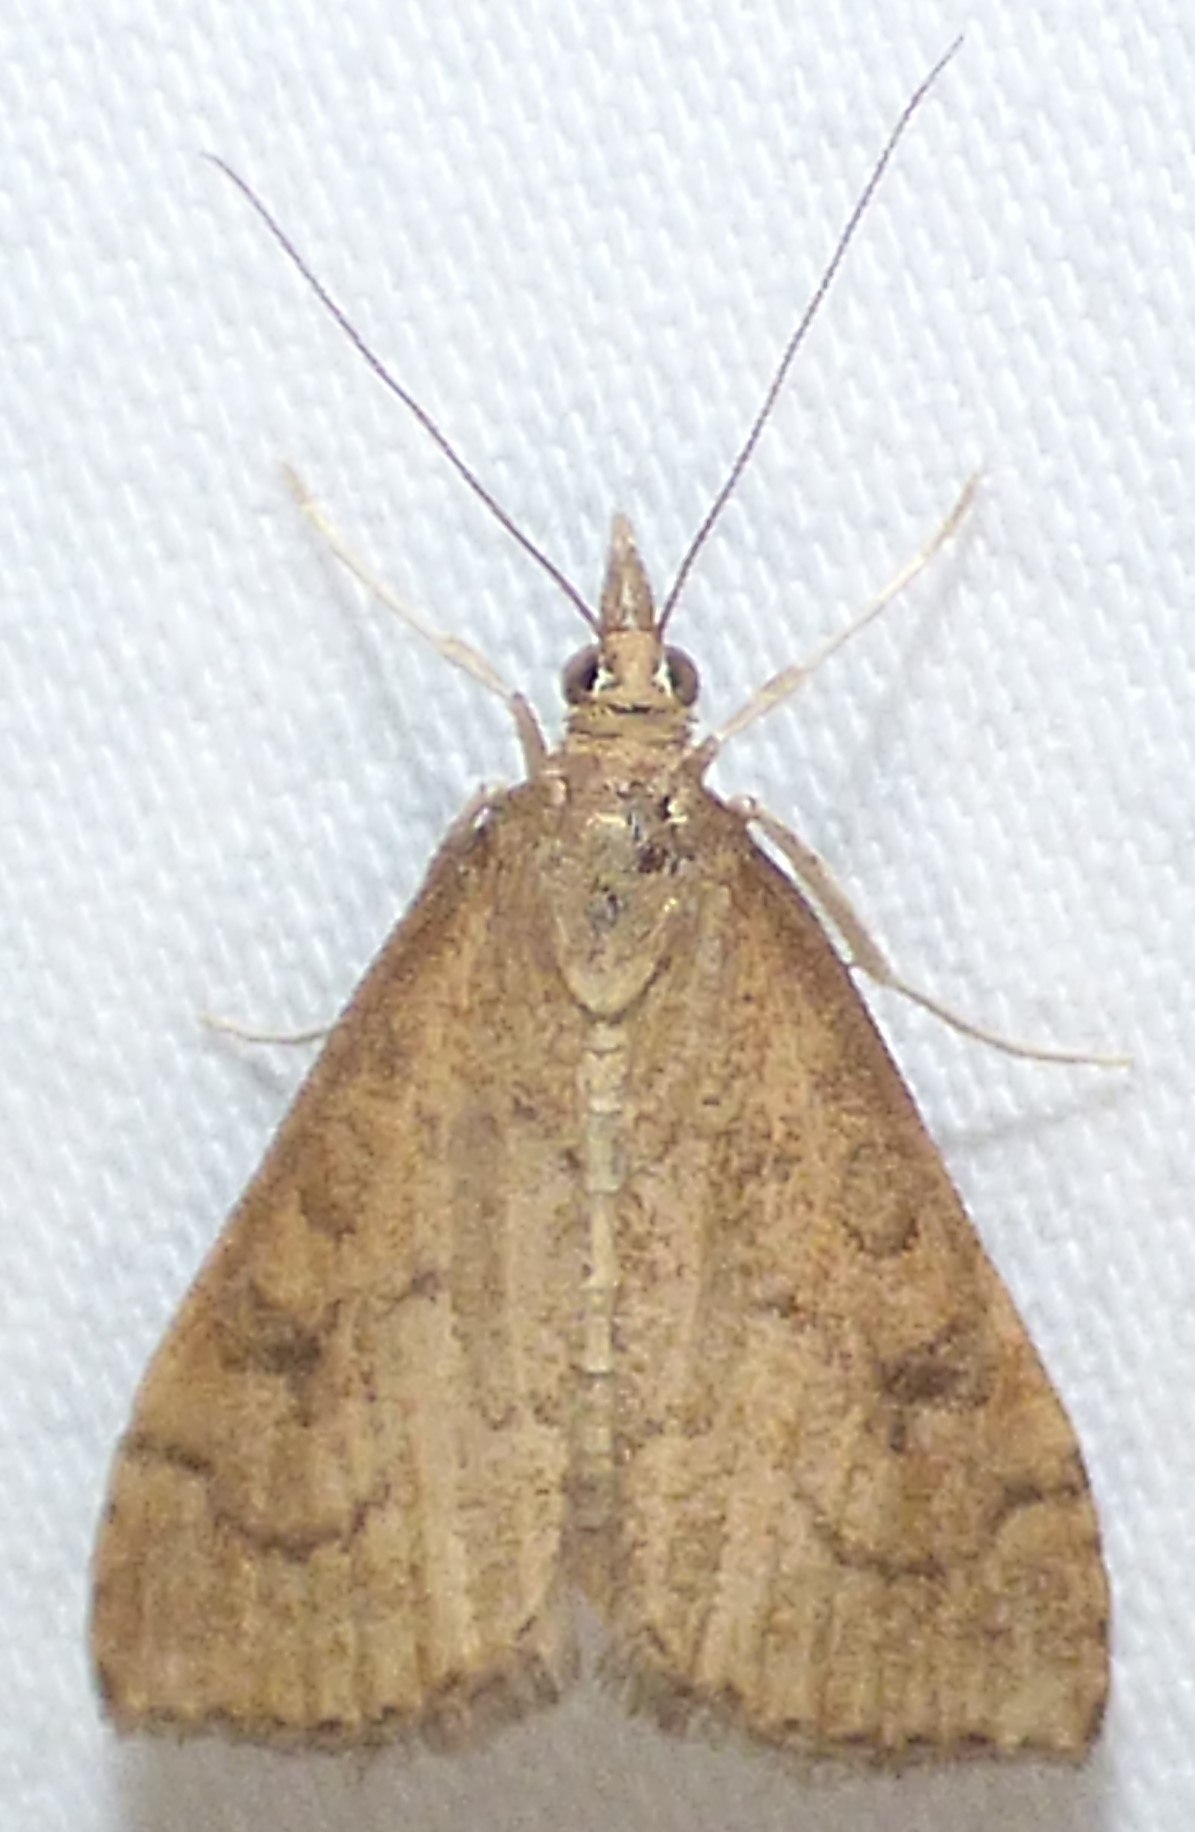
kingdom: Animalia
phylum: Arthropoda
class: Insecta
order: Lepidoptera
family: Crambidae
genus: Udea
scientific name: Udea rubigalis
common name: Celery leaftier moth
